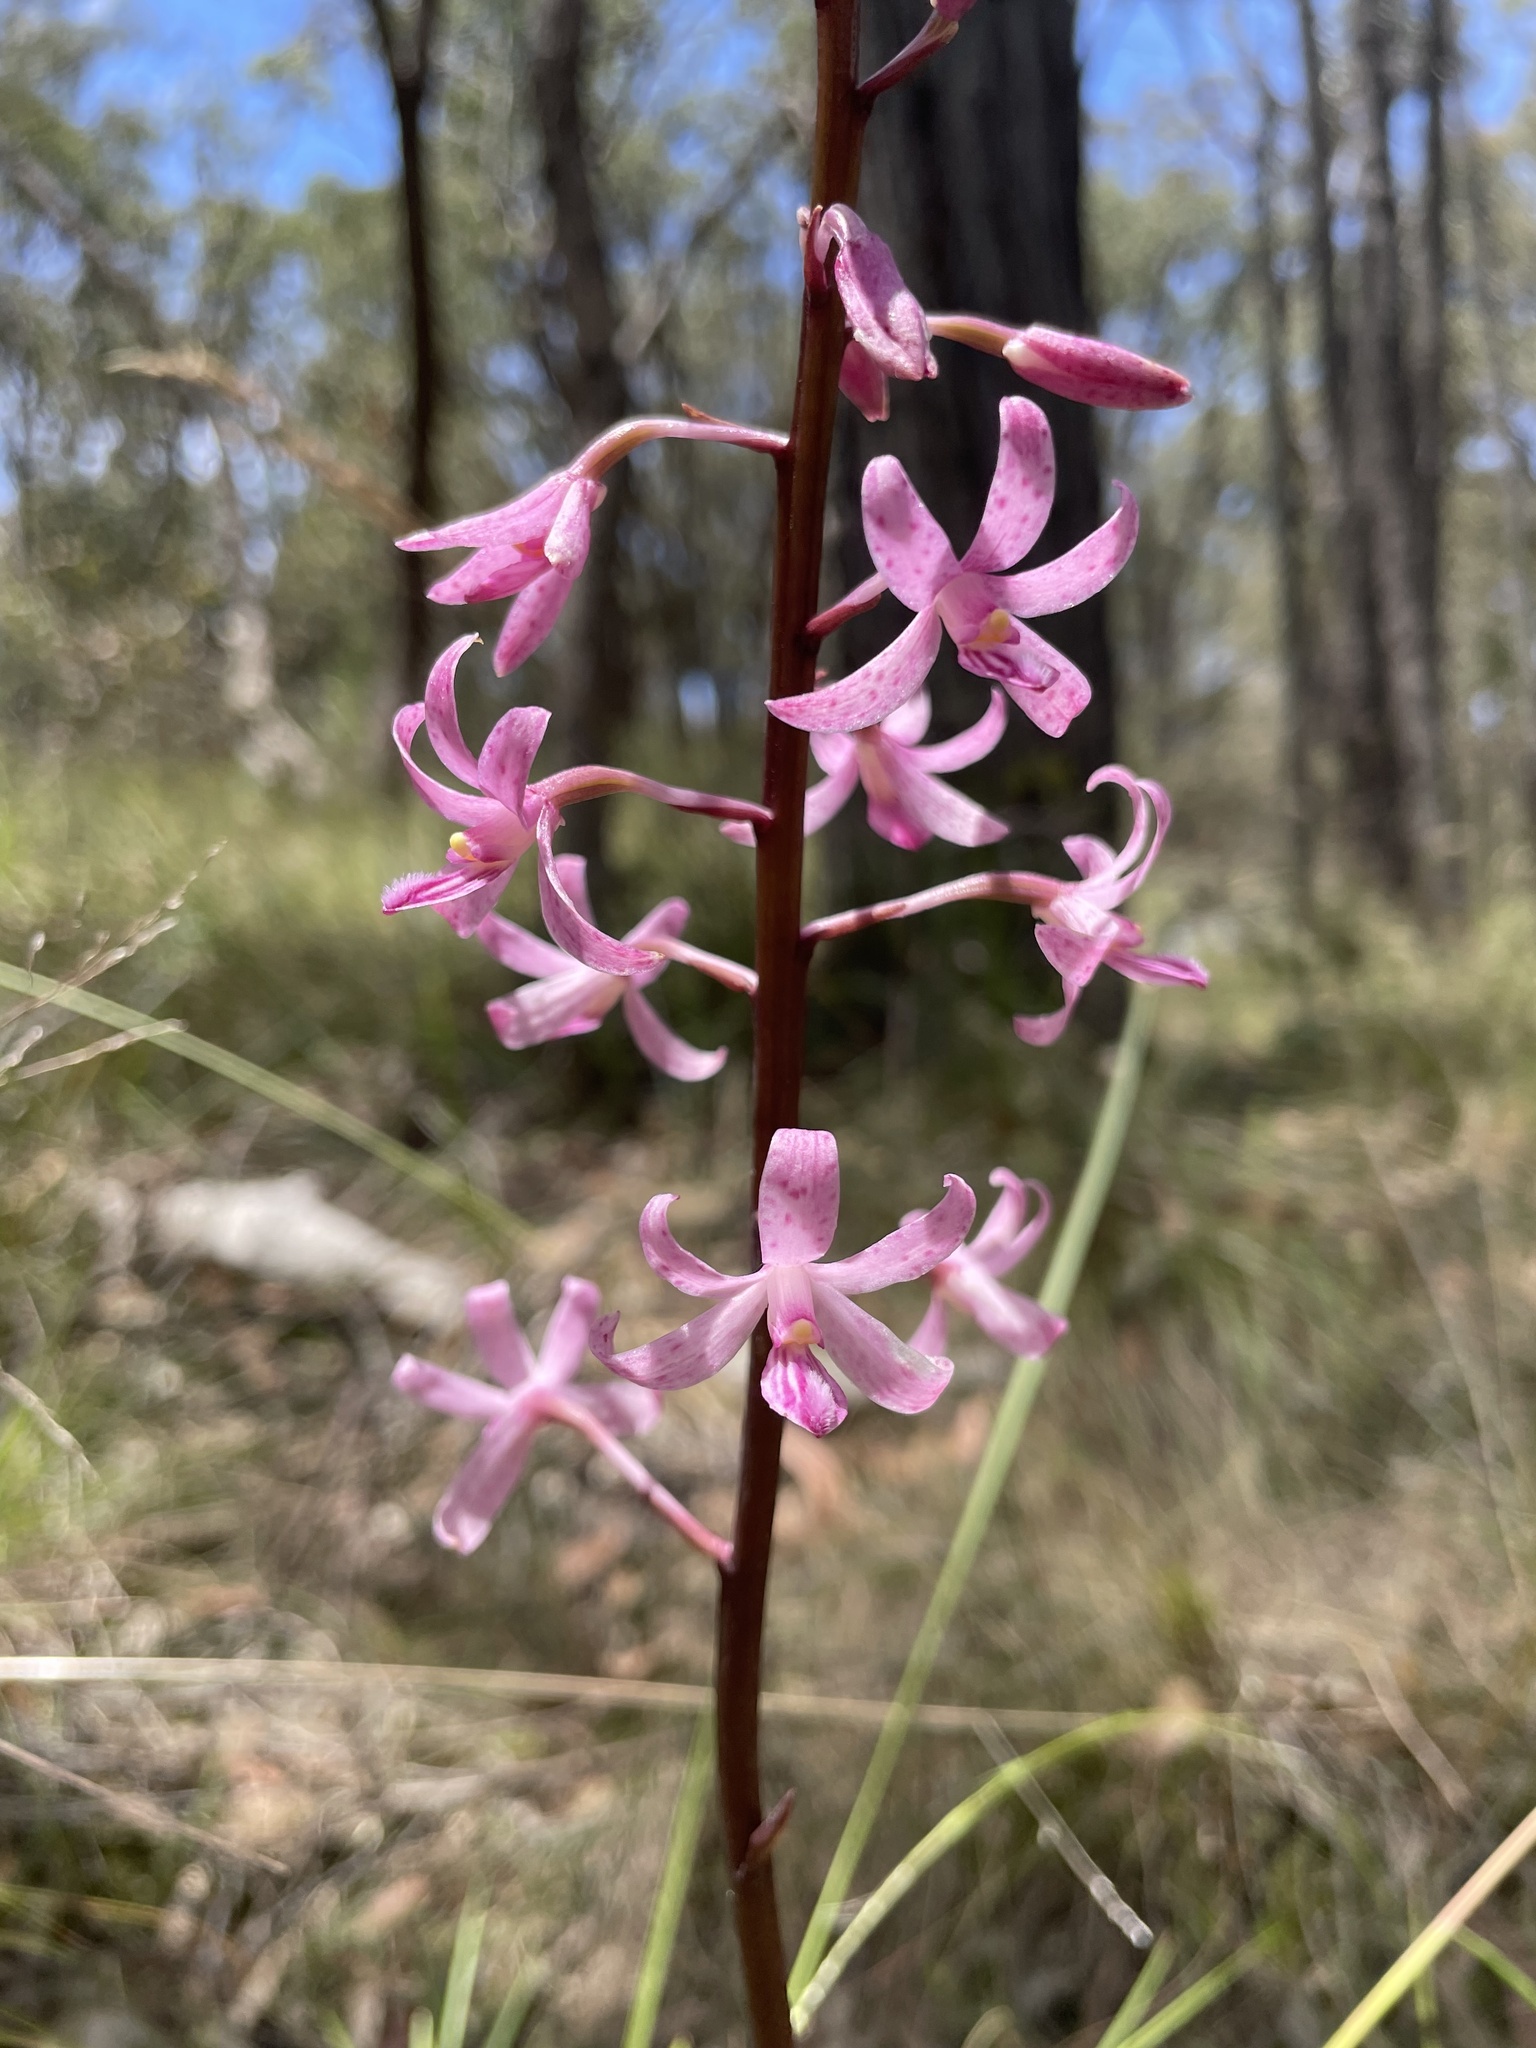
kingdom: Plantae
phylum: Tracheophyta
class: Liliopsida
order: Asparagales
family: Orchidaceae
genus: Dipodium
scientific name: Dipodium roseum
